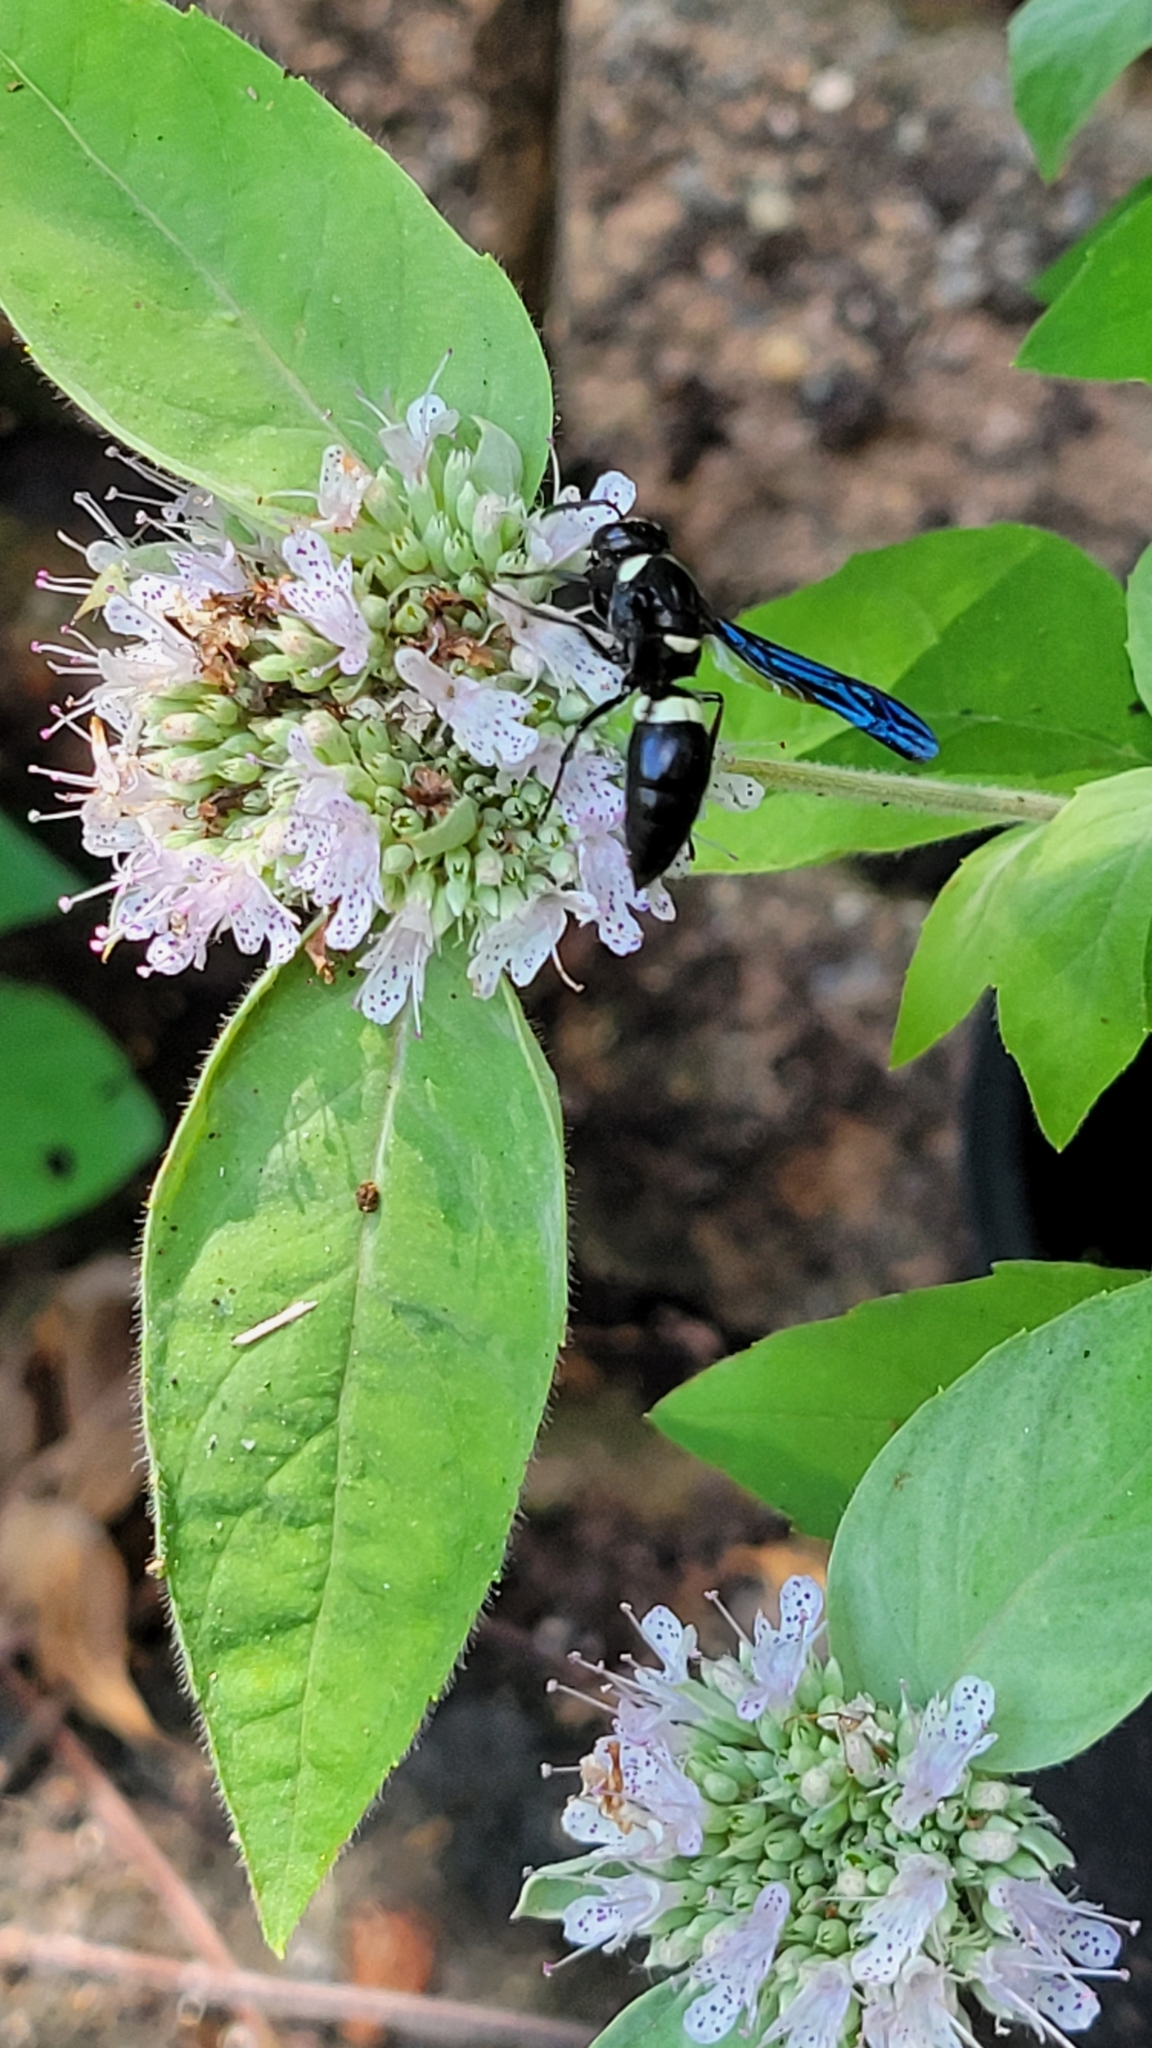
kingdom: Animalia
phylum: Arthropoda
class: Insecta
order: Hymenoptera
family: Eumenidae
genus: Monobia
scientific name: Monobia quadridens
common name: Four-toothed mason wasp
